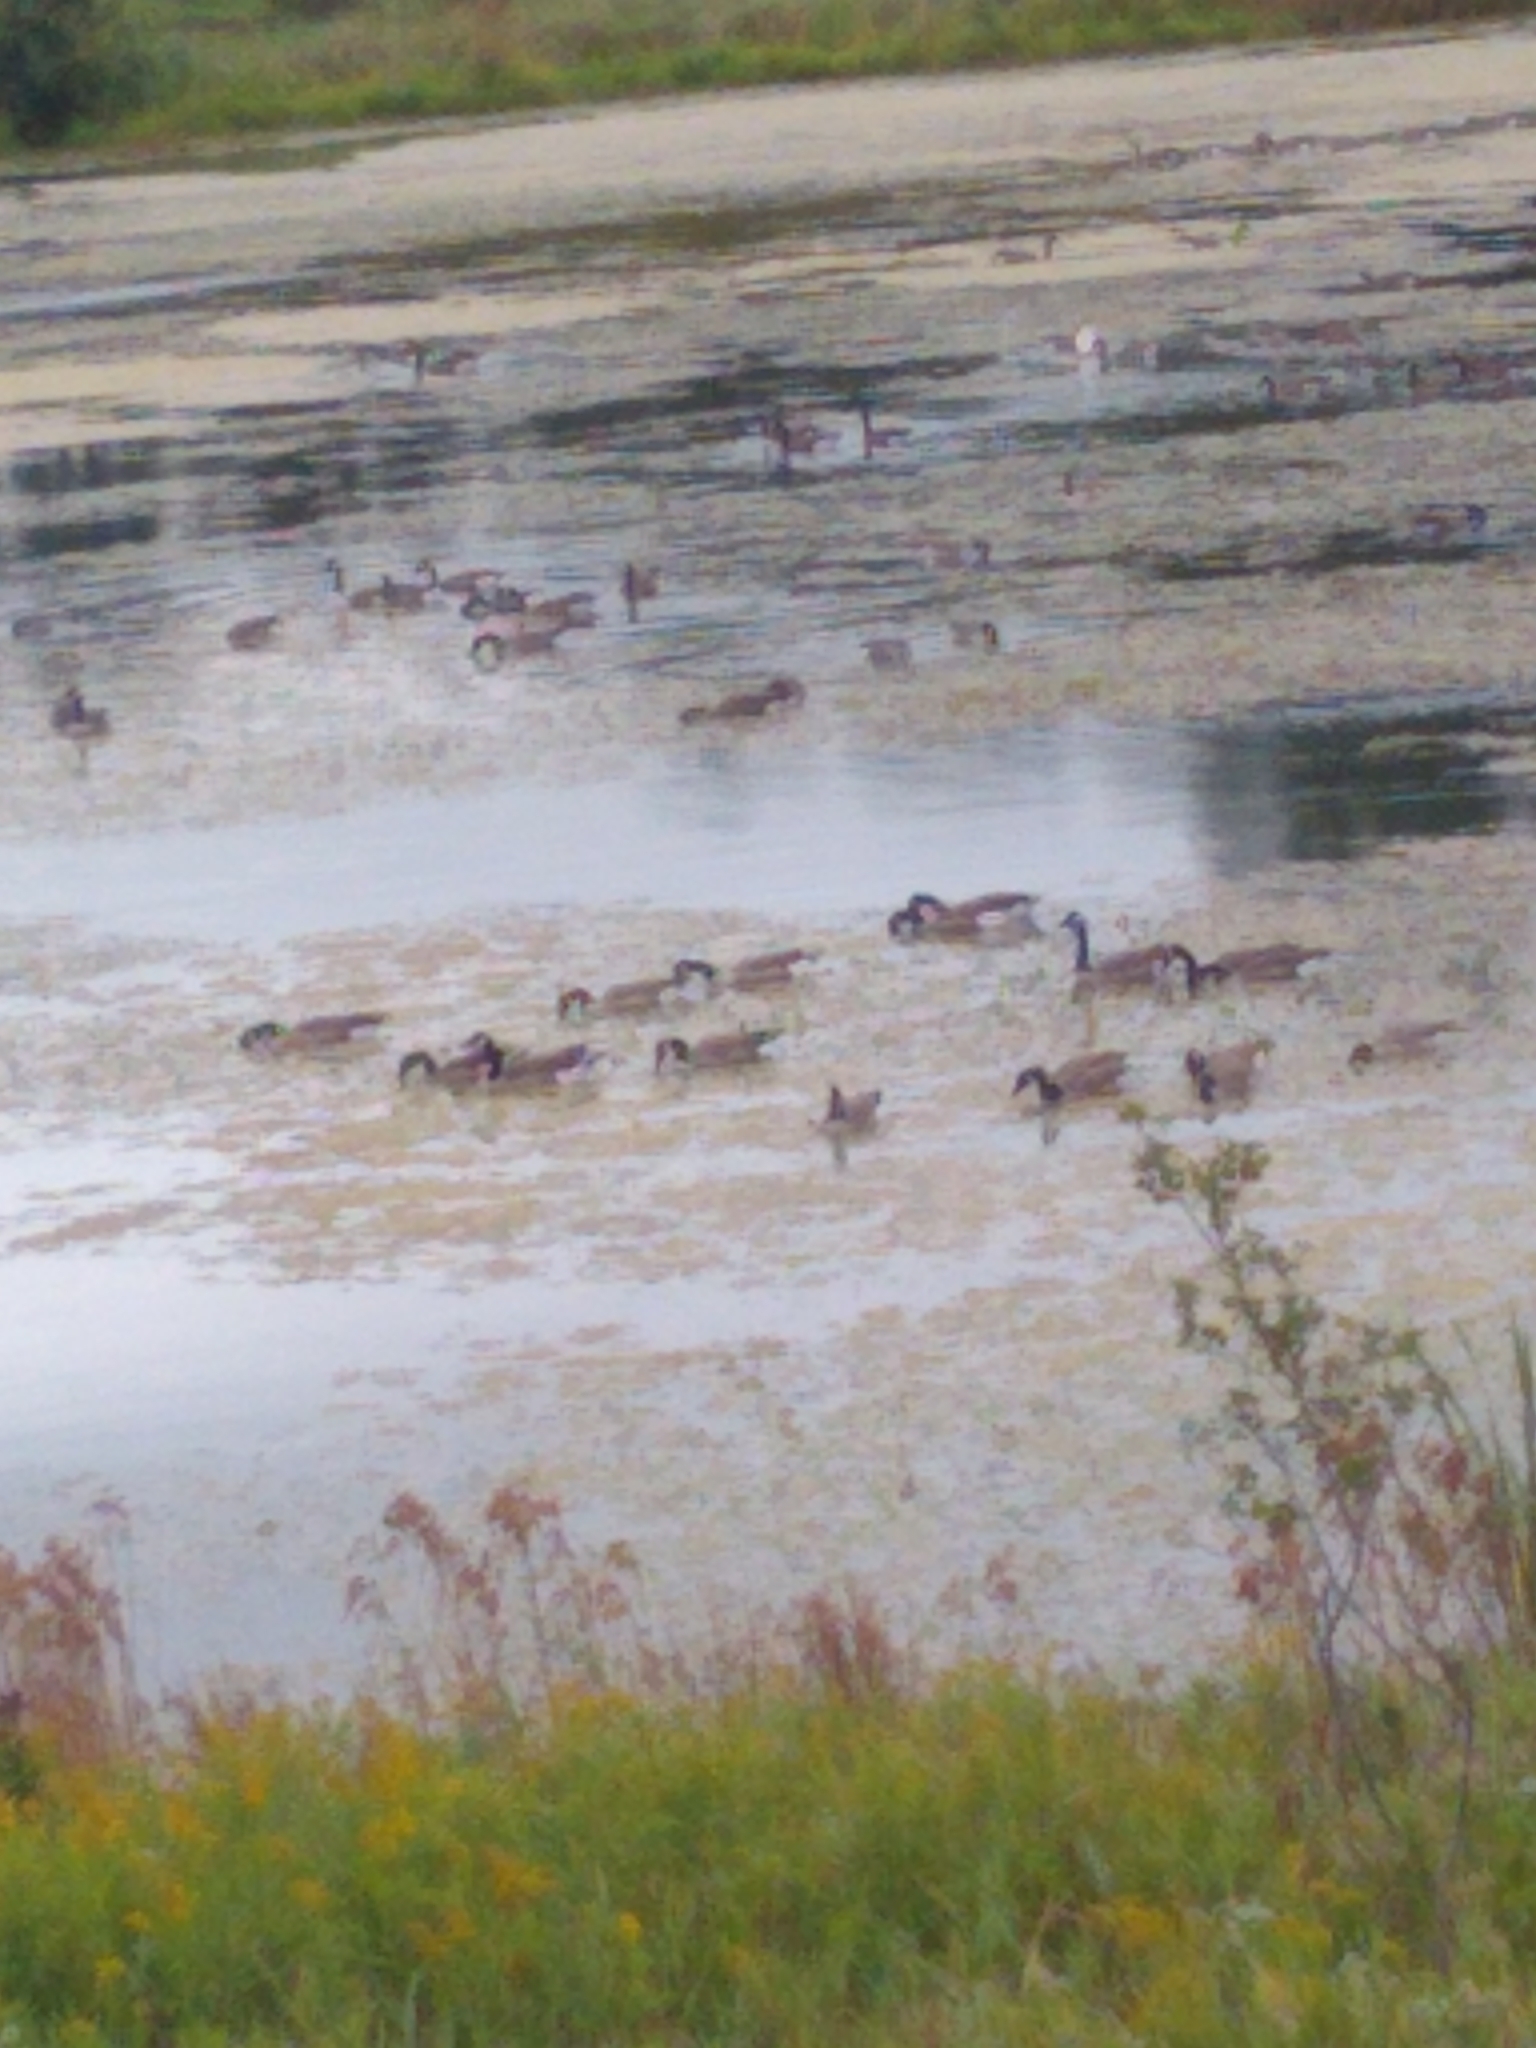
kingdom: Animalia
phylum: Chordata
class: Aves
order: Anseriformes
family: Anatidae
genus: Branta
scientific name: Branta canadensis
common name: Canada goose
